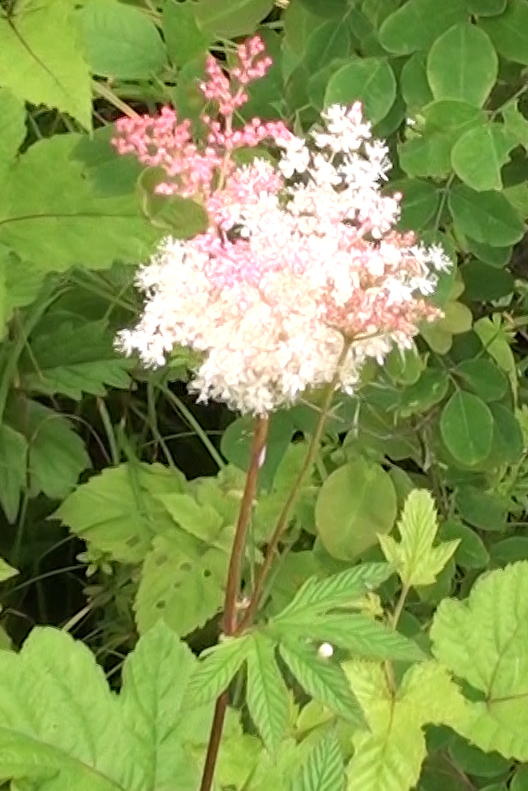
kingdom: Plantae
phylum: Tracheophyta
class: Magnoliopsida
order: Rosales
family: Rosaceae
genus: Filipendula
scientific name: Filipendula digitata
